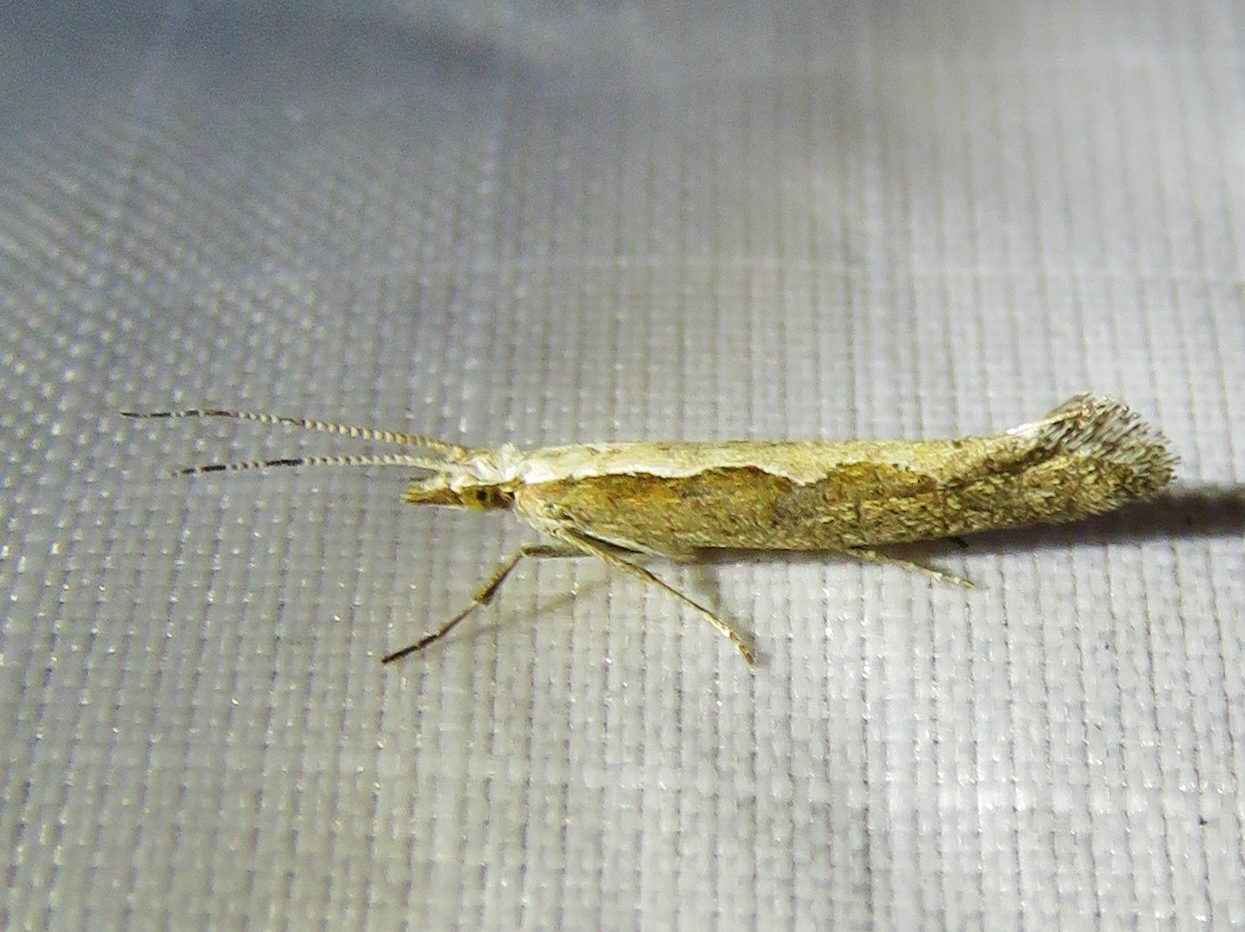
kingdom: Animalia
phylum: Arthropoda
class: Insecta
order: Lepidoptera
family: Plutellidae
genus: Plutella
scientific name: Plutella xylostella
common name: Diamond-back moth
